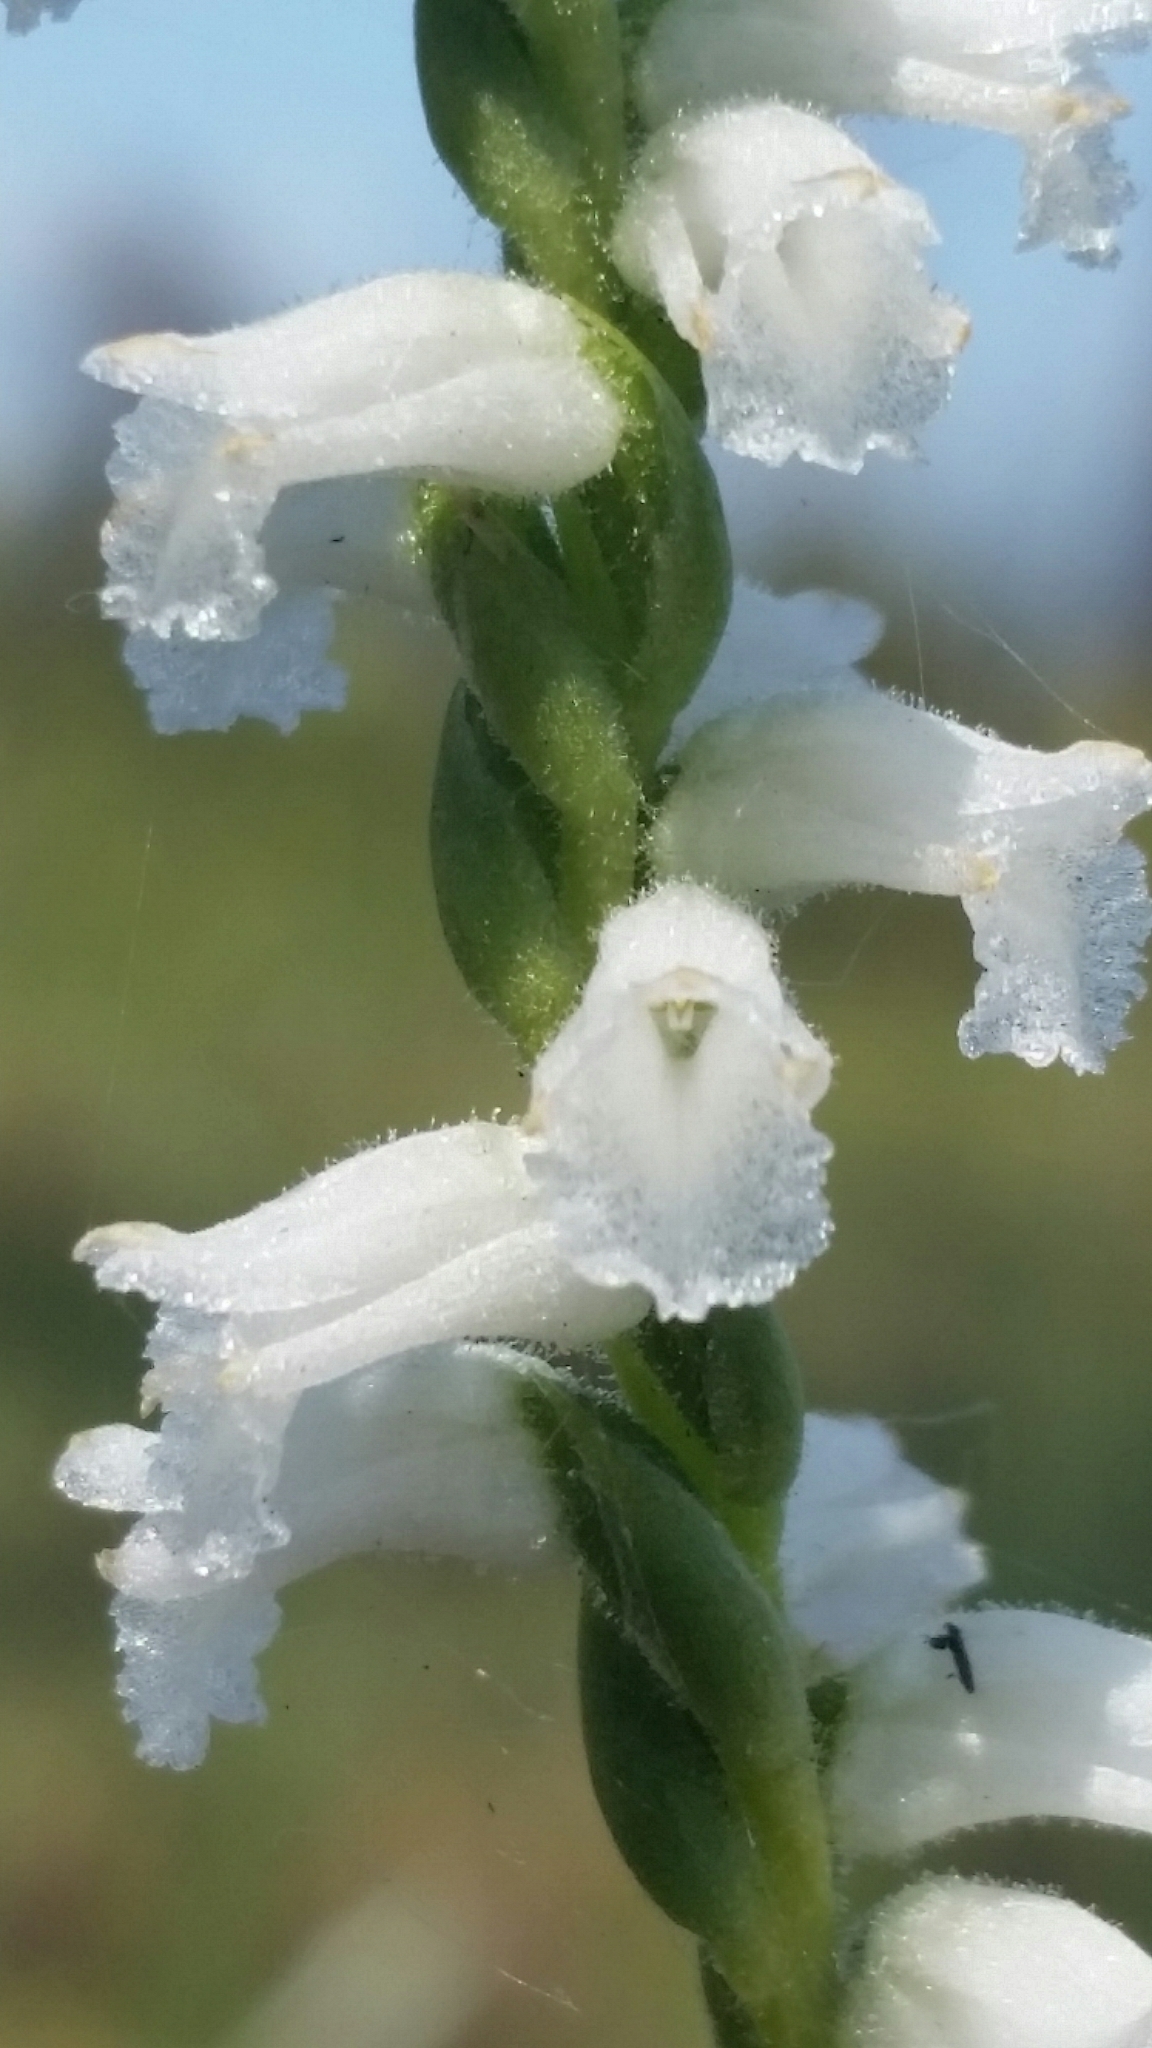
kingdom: Plantae
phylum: Tracheophyta
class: Liliopsida
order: Asparagales
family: Orchidaceae
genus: Spiranthes
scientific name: Spiranthes praecox
